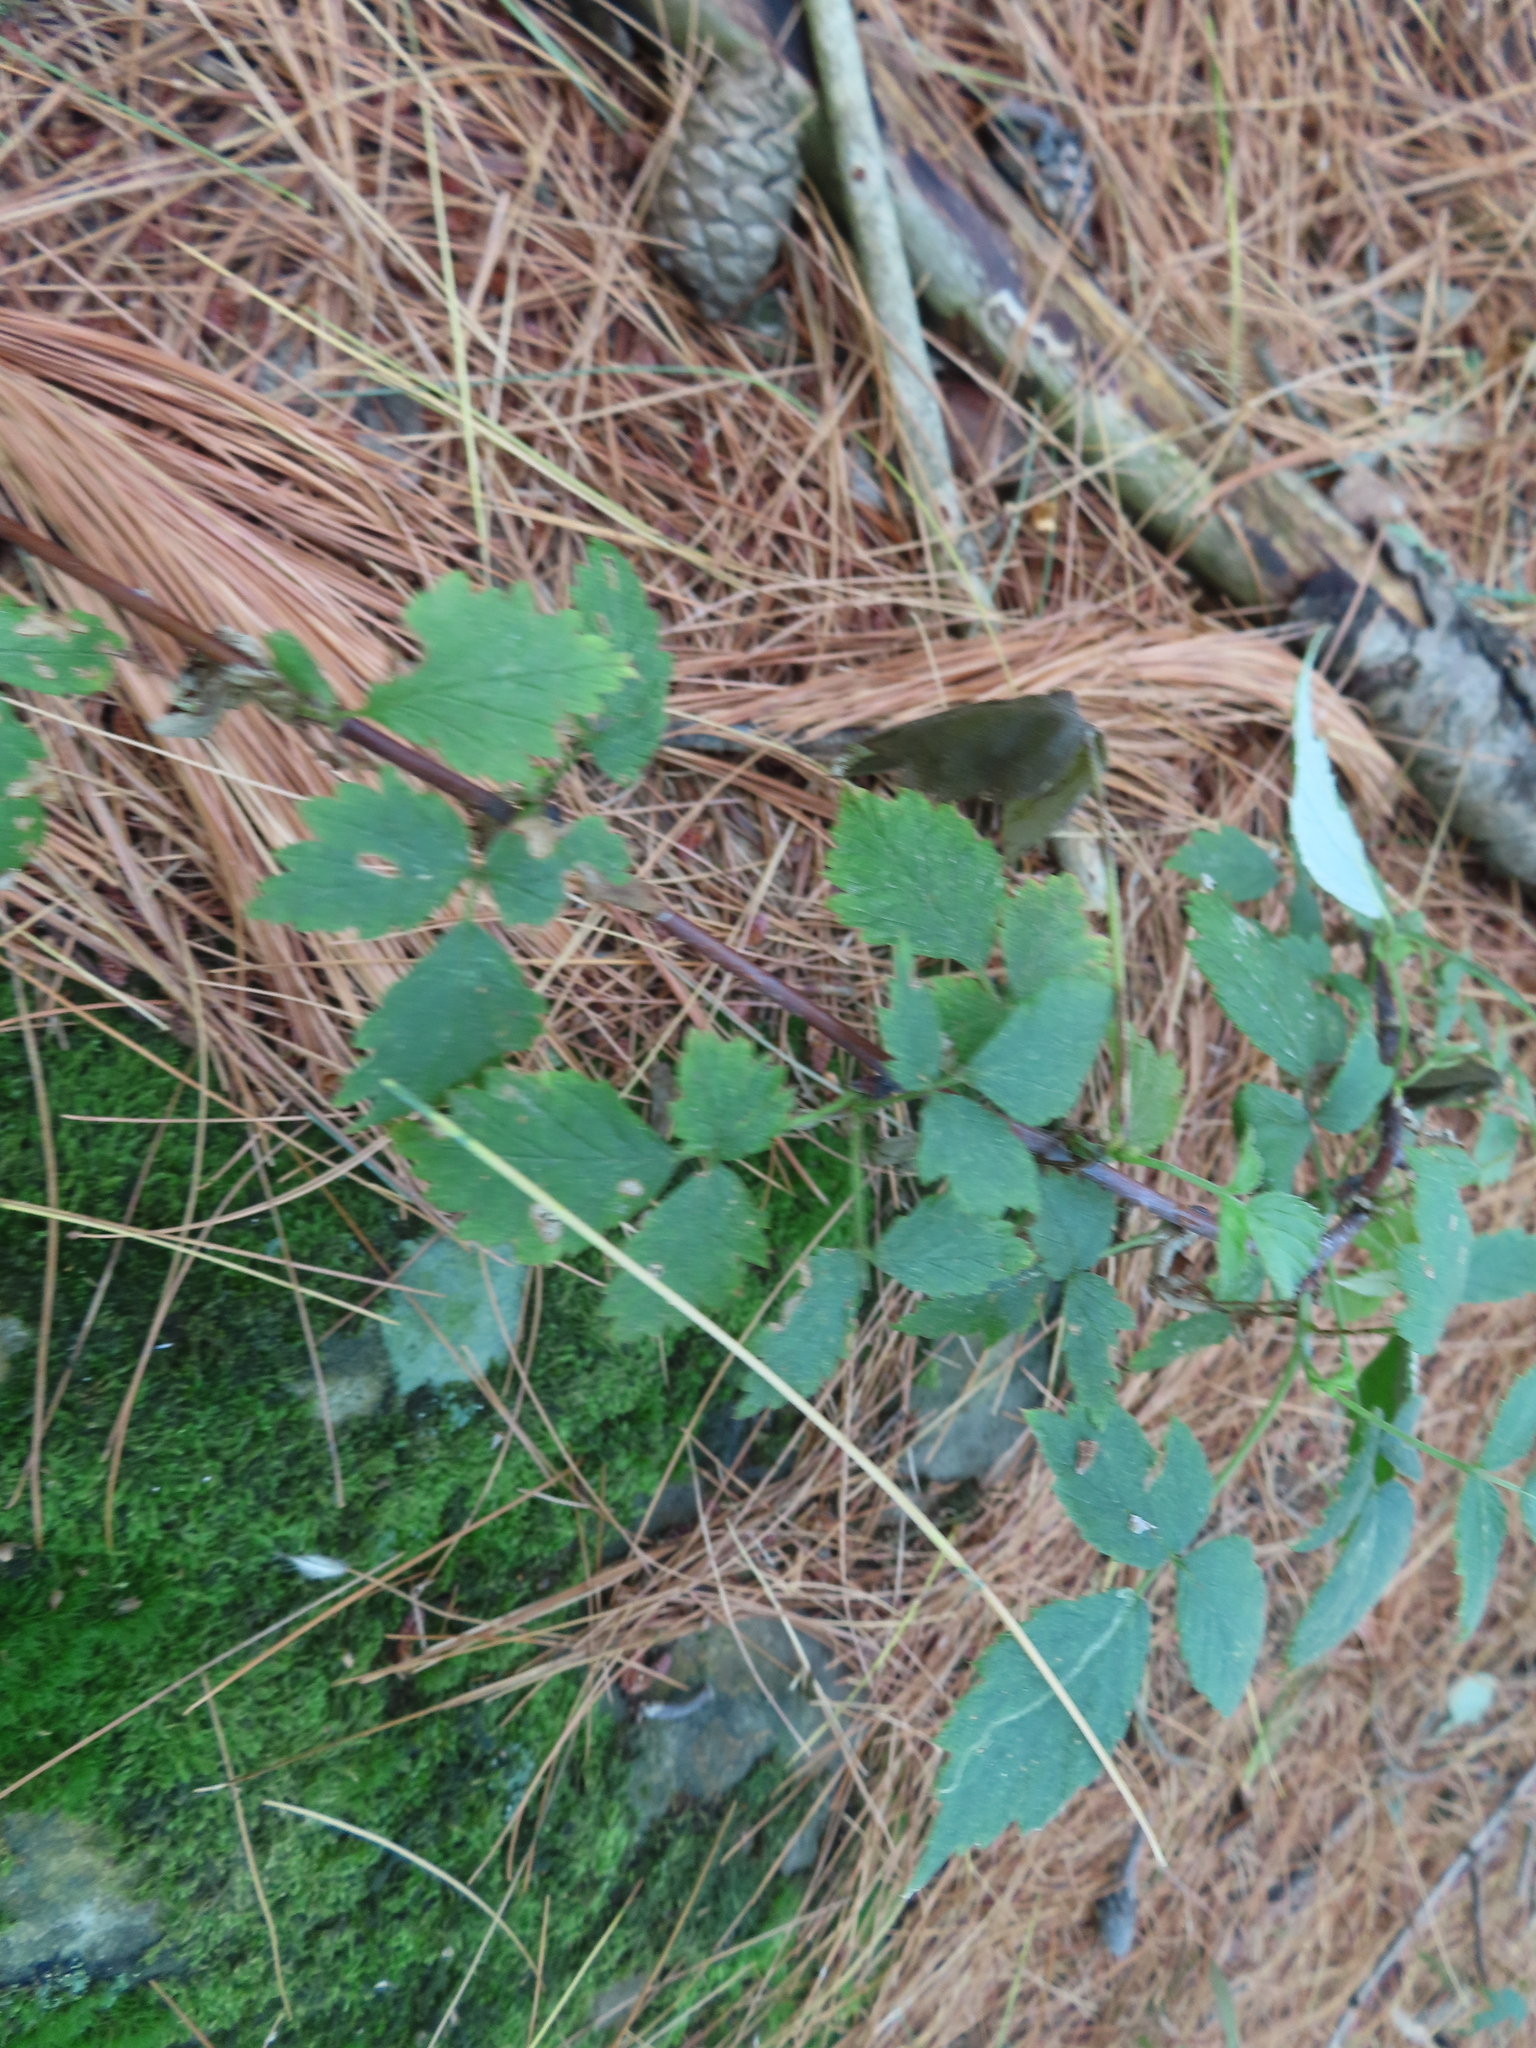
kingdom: Plantae
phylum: Tracheophyta
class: Magnoliopsida
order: Rosales
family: Rosaceae
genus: Rubus
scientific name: Rubus occidentalis
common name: Black raspberry
